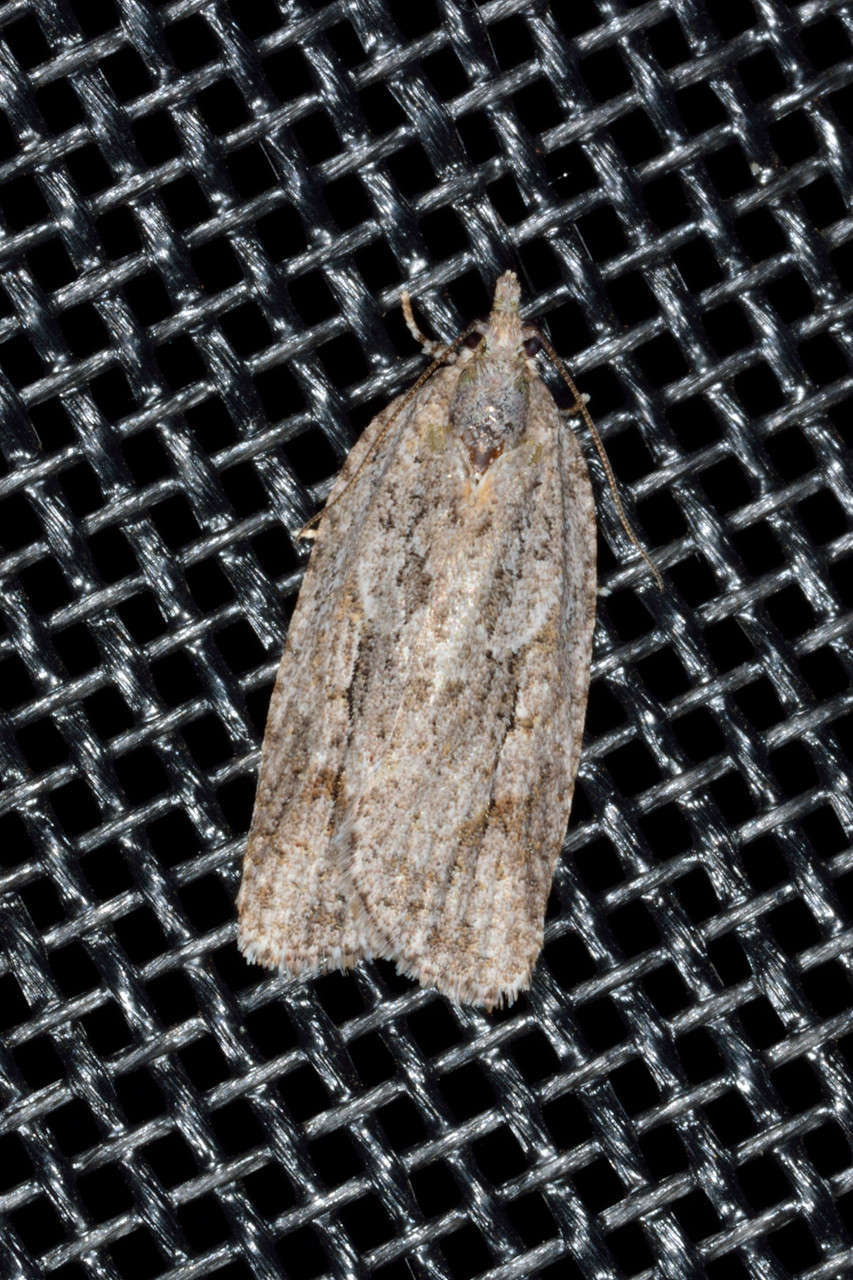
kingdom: Animalia
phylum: Arthropoda
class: Insecta
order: Lepidoptera
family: Tortricidae
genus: Acropolitis
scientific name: Acropolitis rudisana
